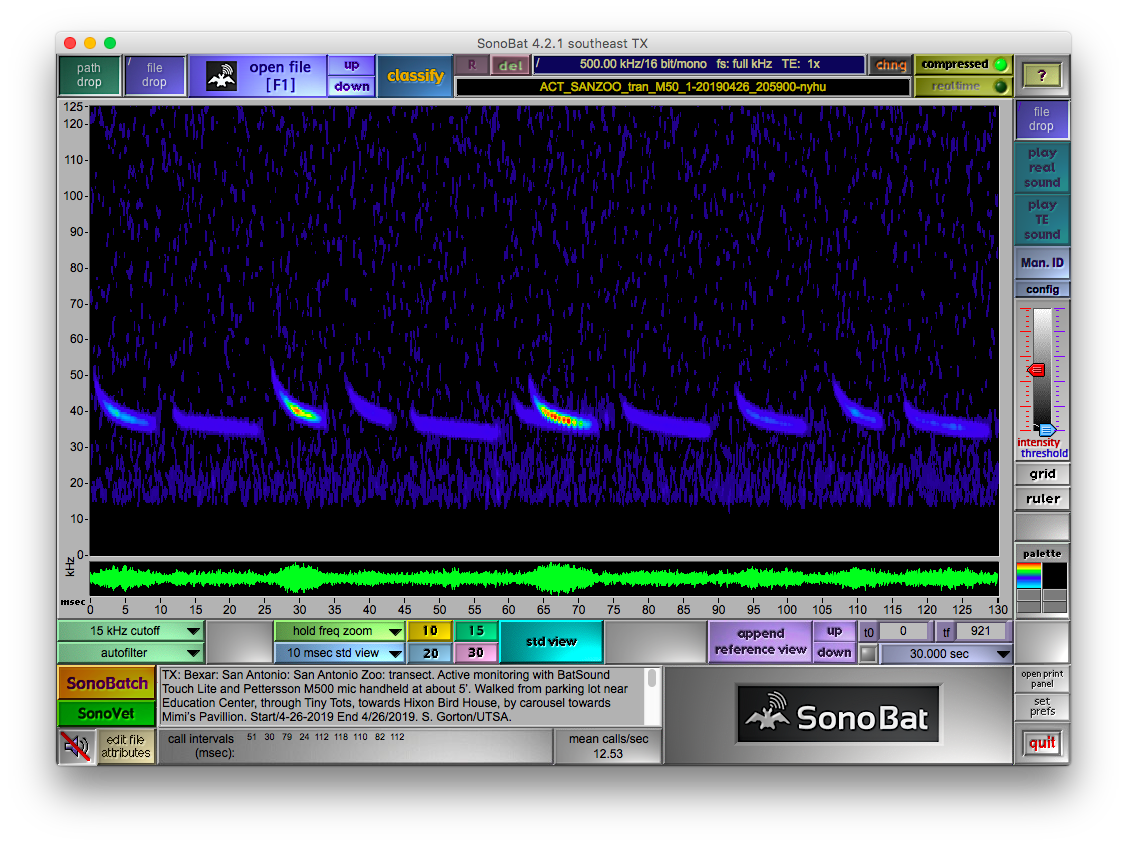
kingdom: Animalia
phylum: Chordata
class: Mammalia
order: Chiroptera
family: Vespertilionidae
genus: Nycticeius
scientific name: Nycticeius humeralis
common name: Evening bat
